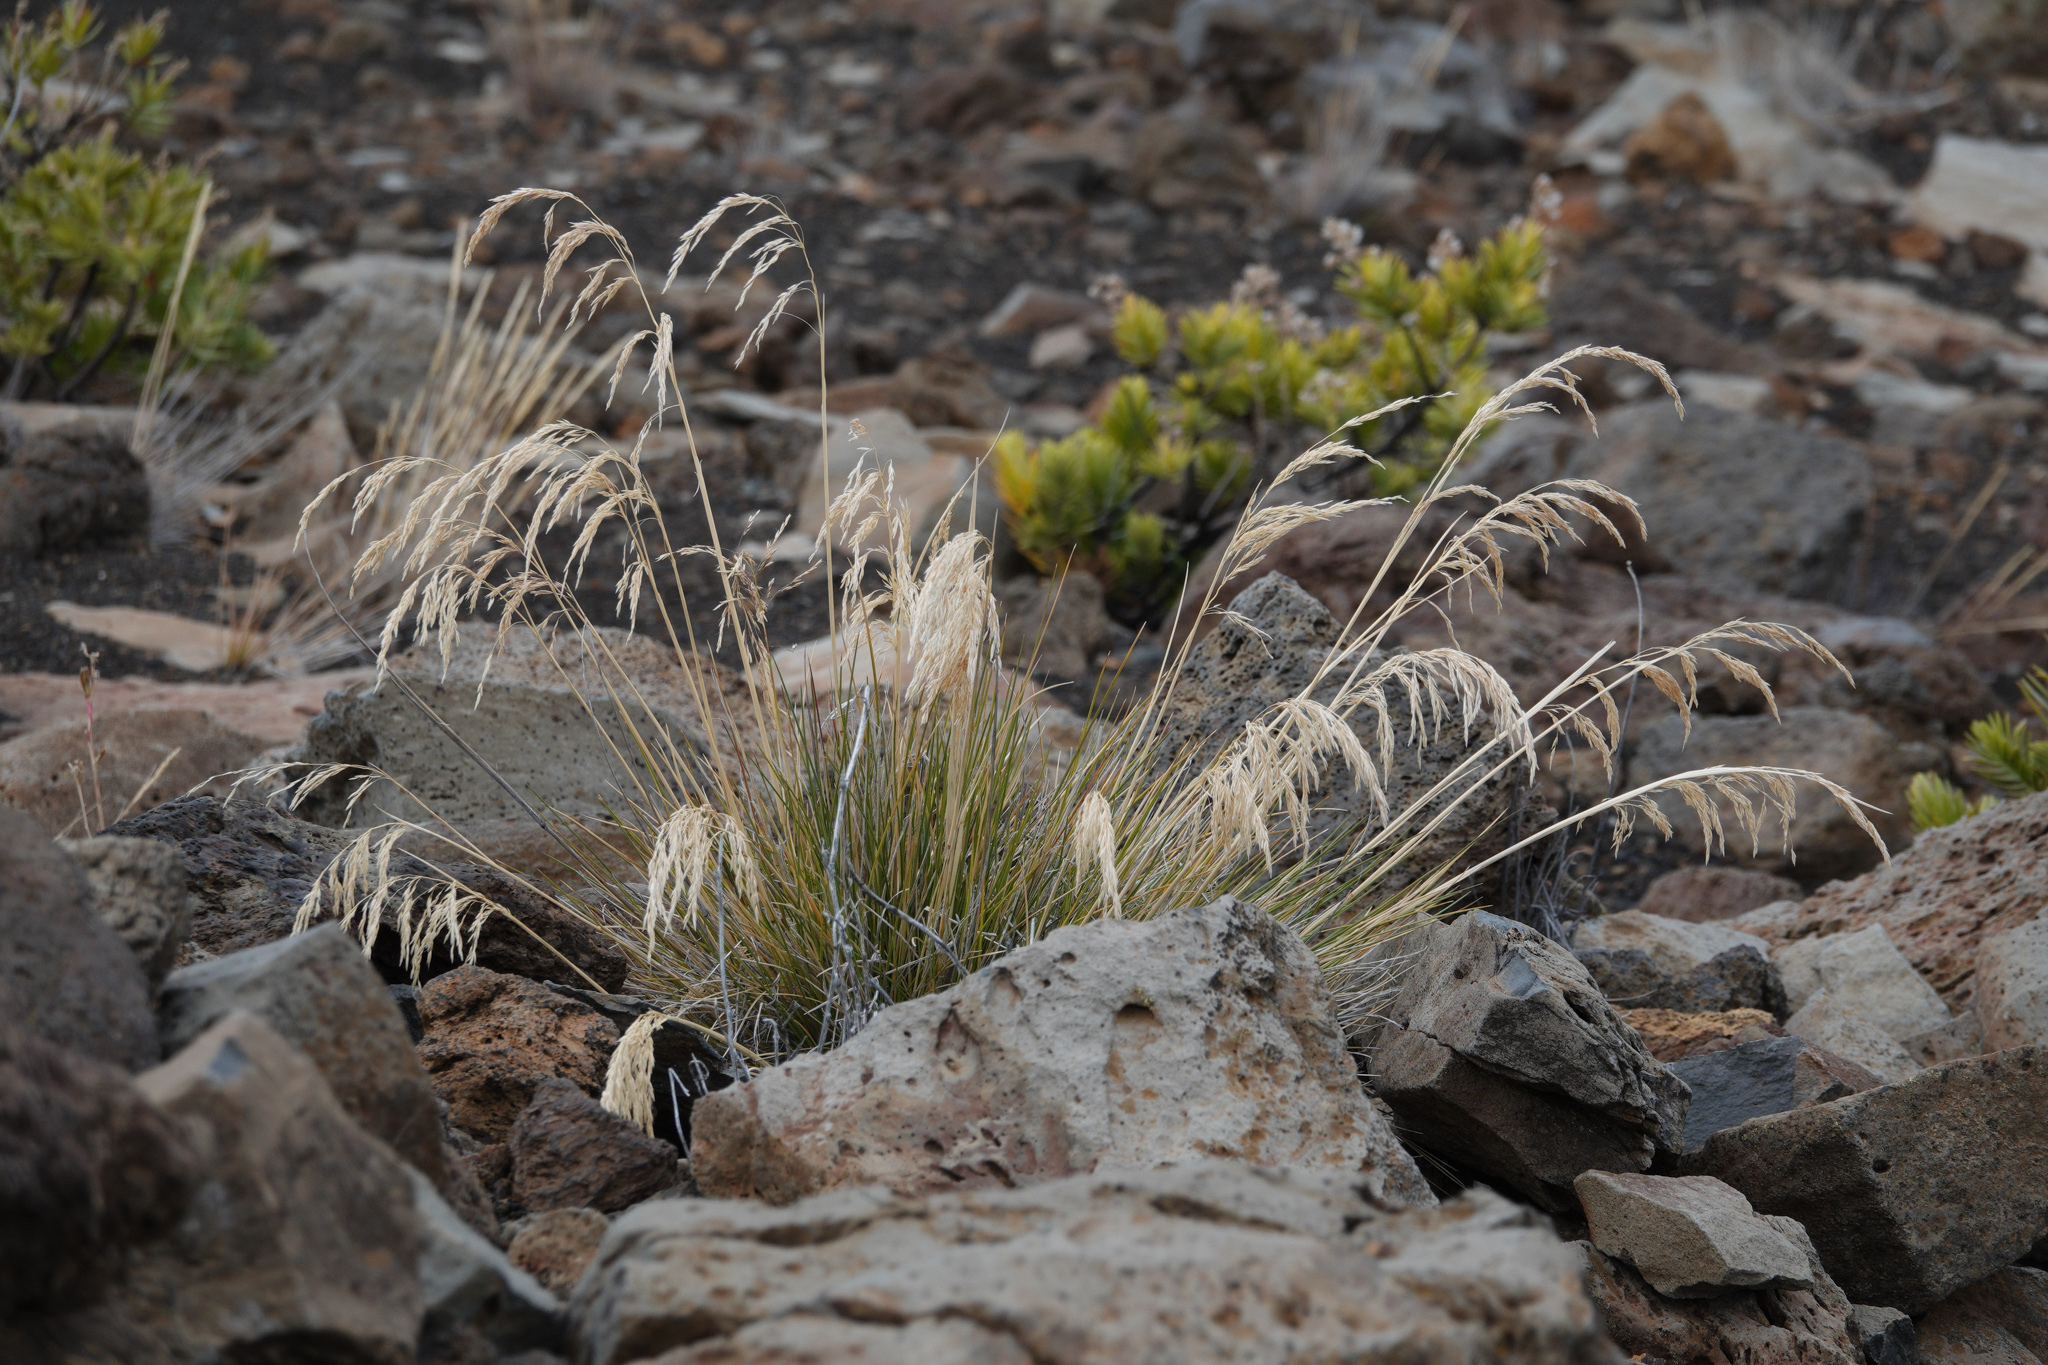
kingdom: Plantae
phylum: Tracheophyta
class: Liliopsida
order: Poales
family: Poaceae
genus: Deschampsia
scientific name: Deschampsia nubigena
